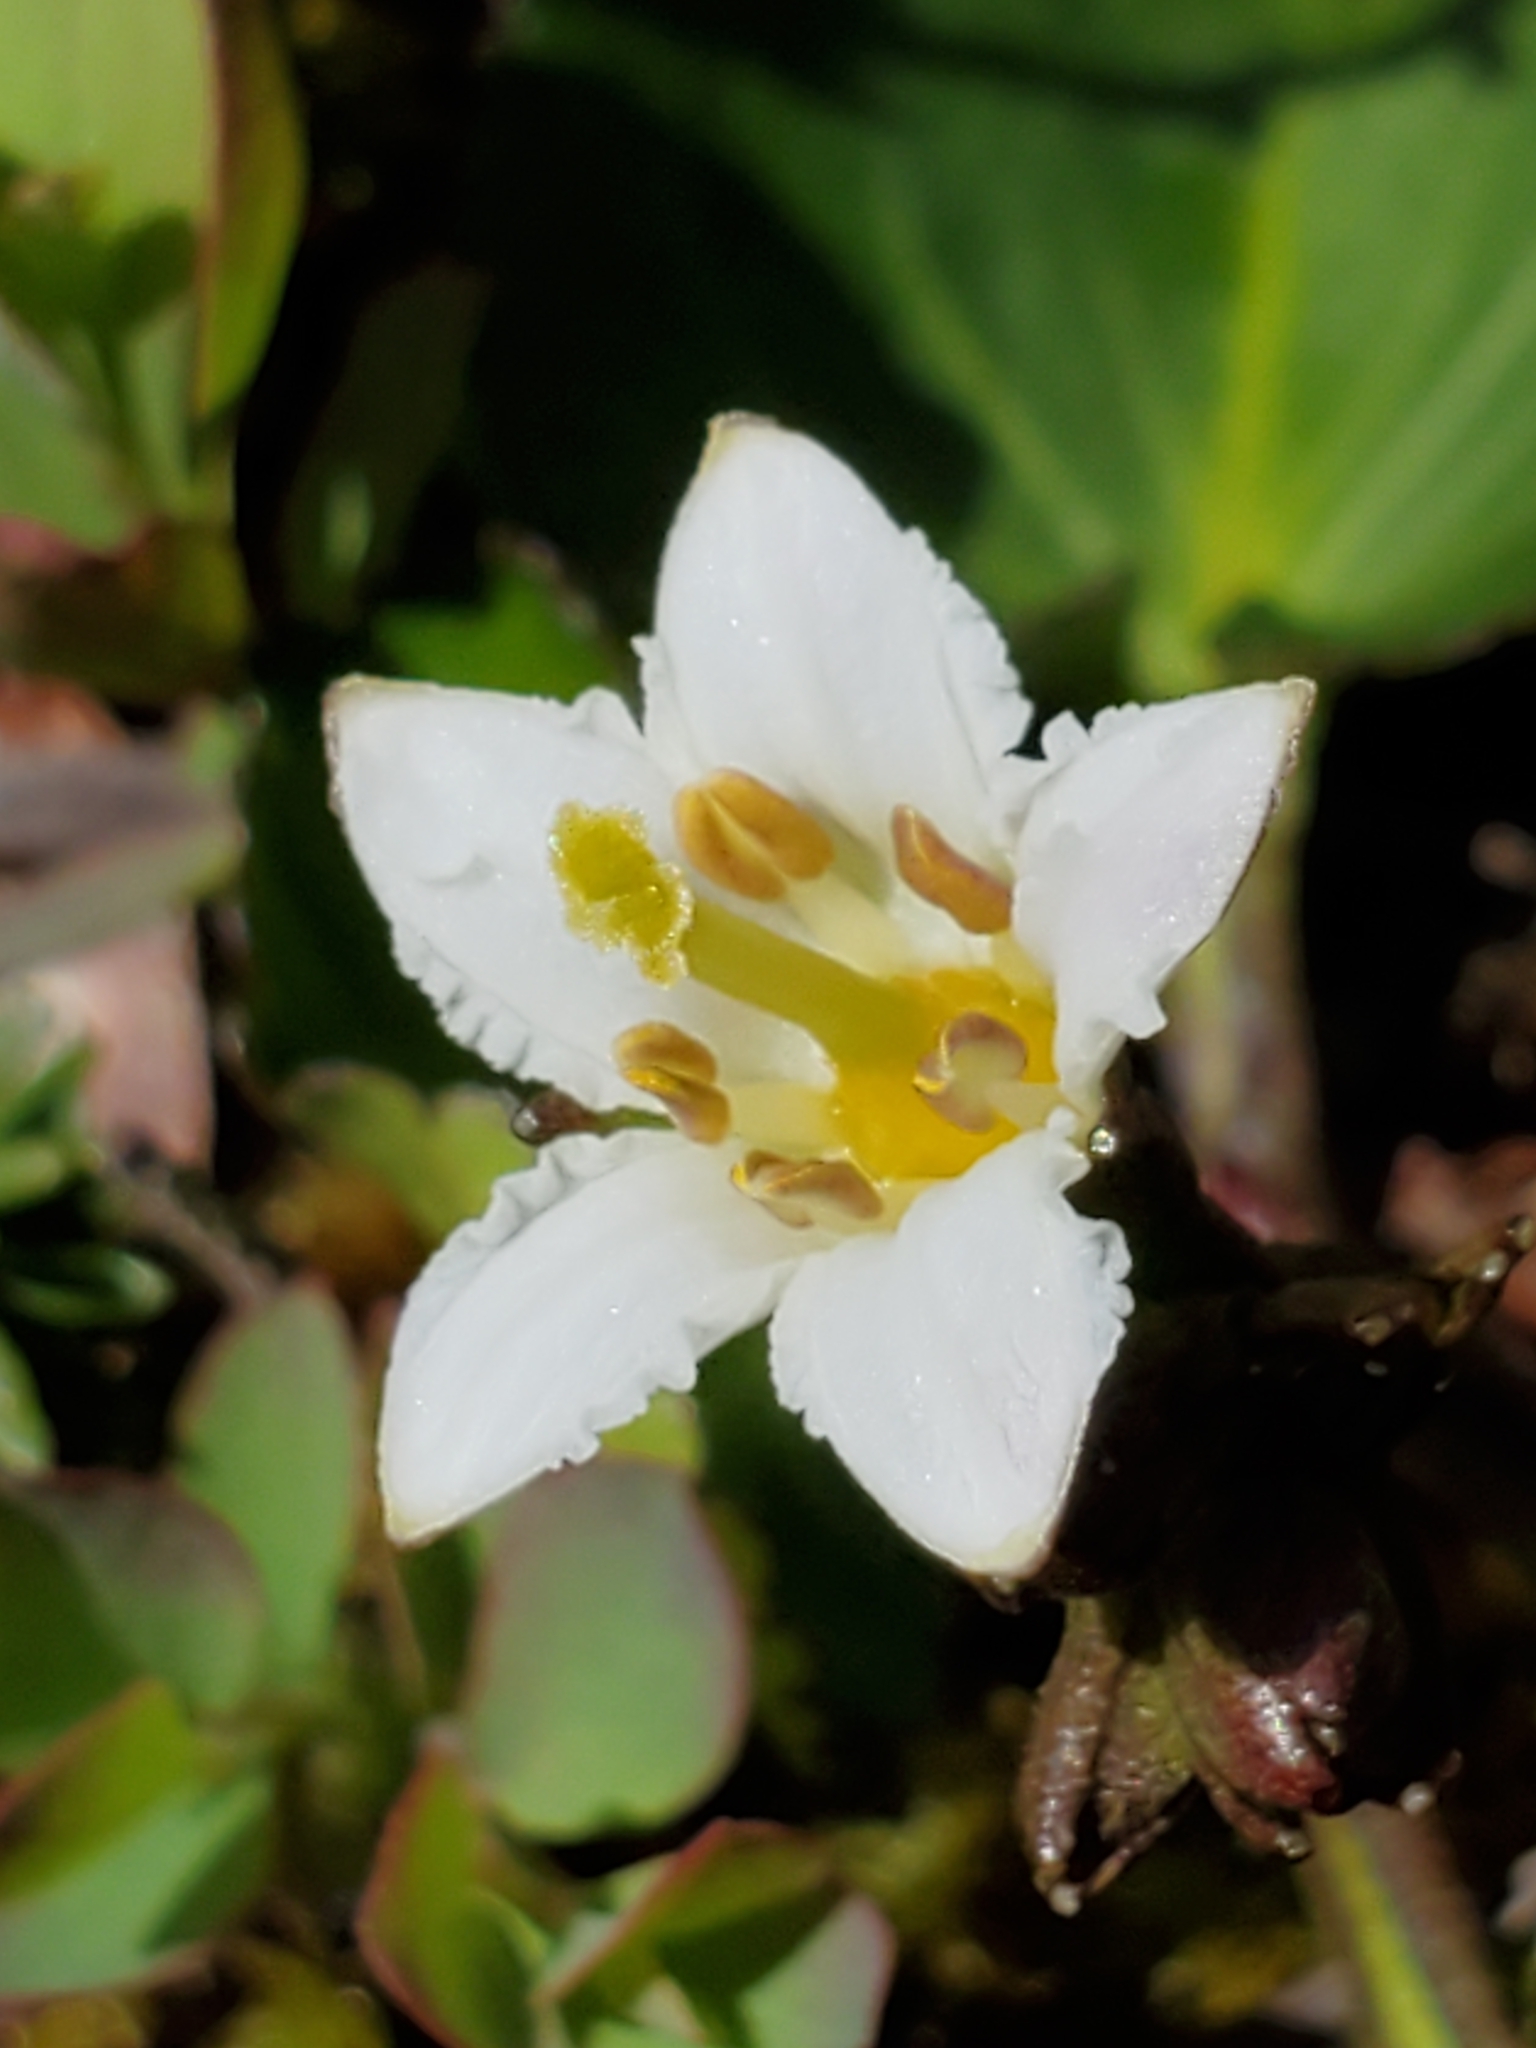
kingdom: Plantae
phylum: Tracheophyta
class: Magnoliopsida
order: Asterales
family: Menyanthaceae
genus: Nephrophyllidium
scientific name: Nephrophyllidium crista-galli
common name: Deer-cabbage
